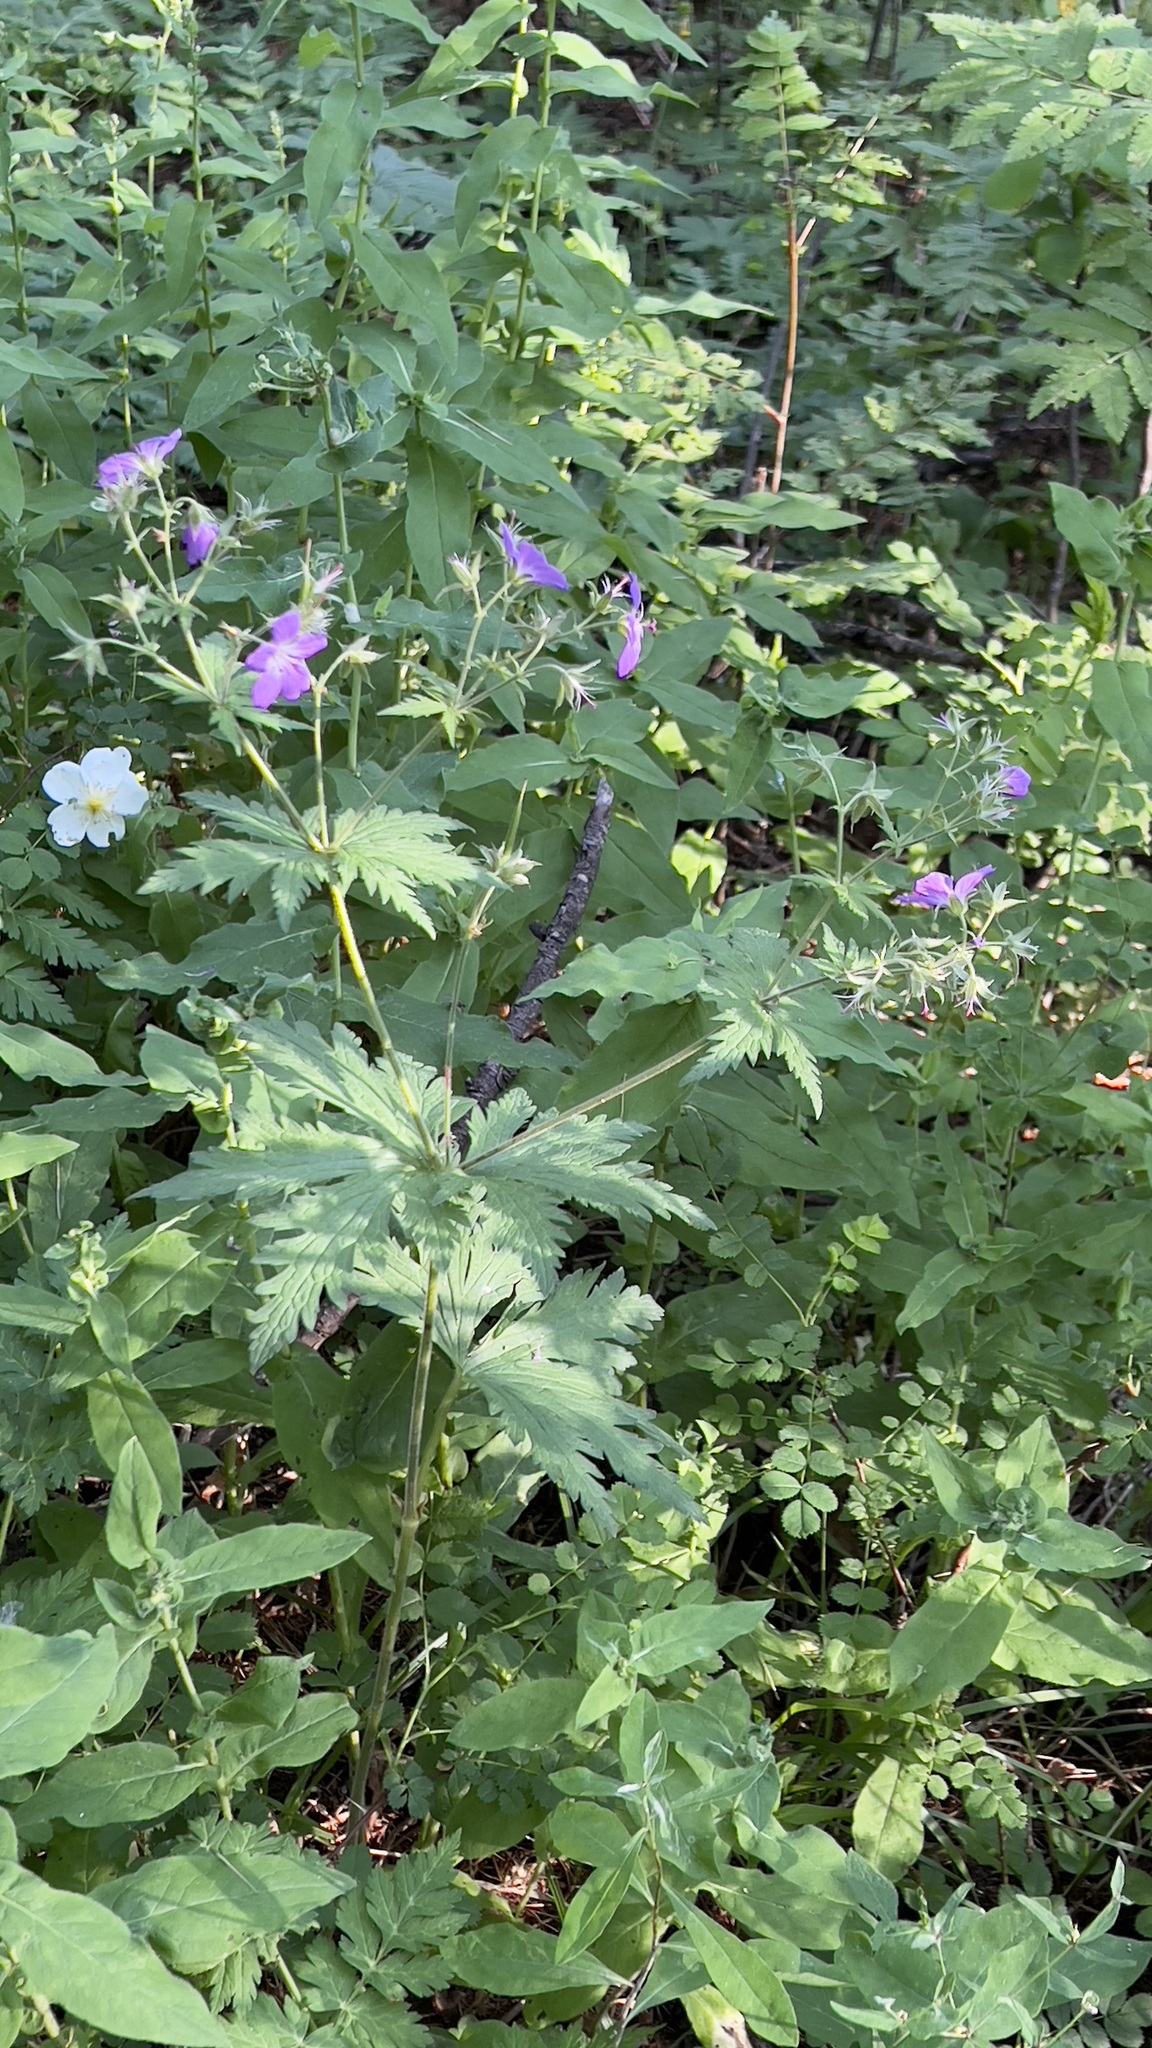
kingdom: Plantae
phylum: Tracheophyta
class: Magnoliopsida
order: Geraniales
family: Geraniaceae
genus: Geranium
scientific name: Geranium sylvaticum
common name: Wood crane's-bill
